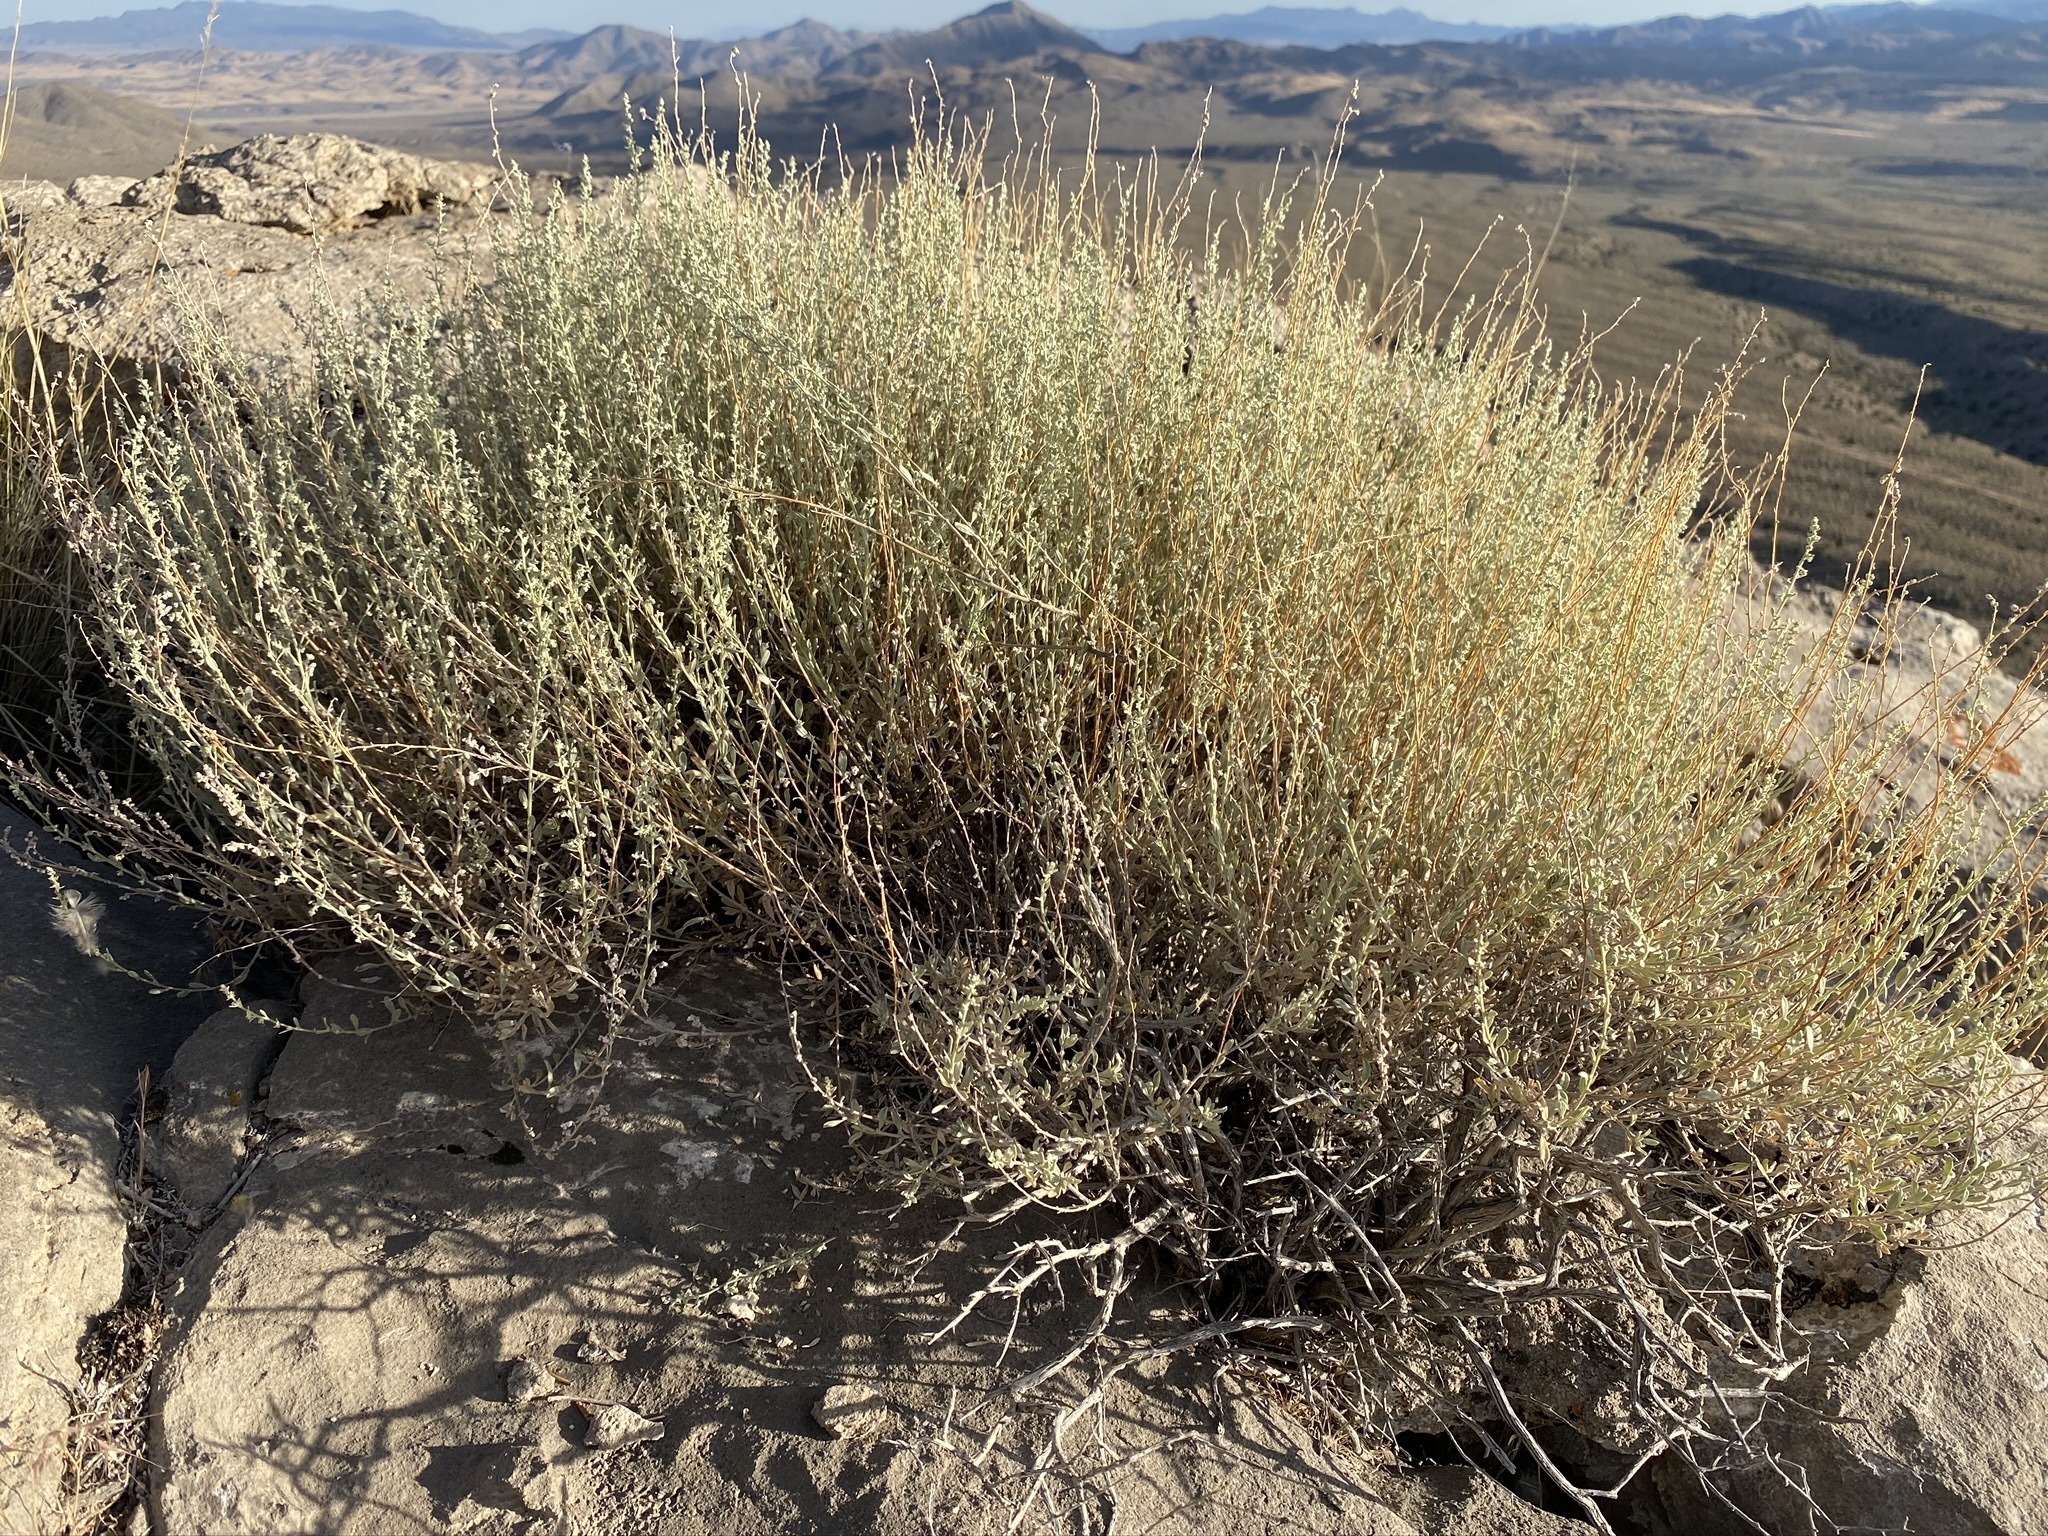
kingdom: Plantae
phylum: Tracheophyta
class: Magnoliopsida
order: Asterales
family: Asteraceae
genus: Artemisia
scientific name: Artemisia bigelovii
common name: Bigelow sagebrush
